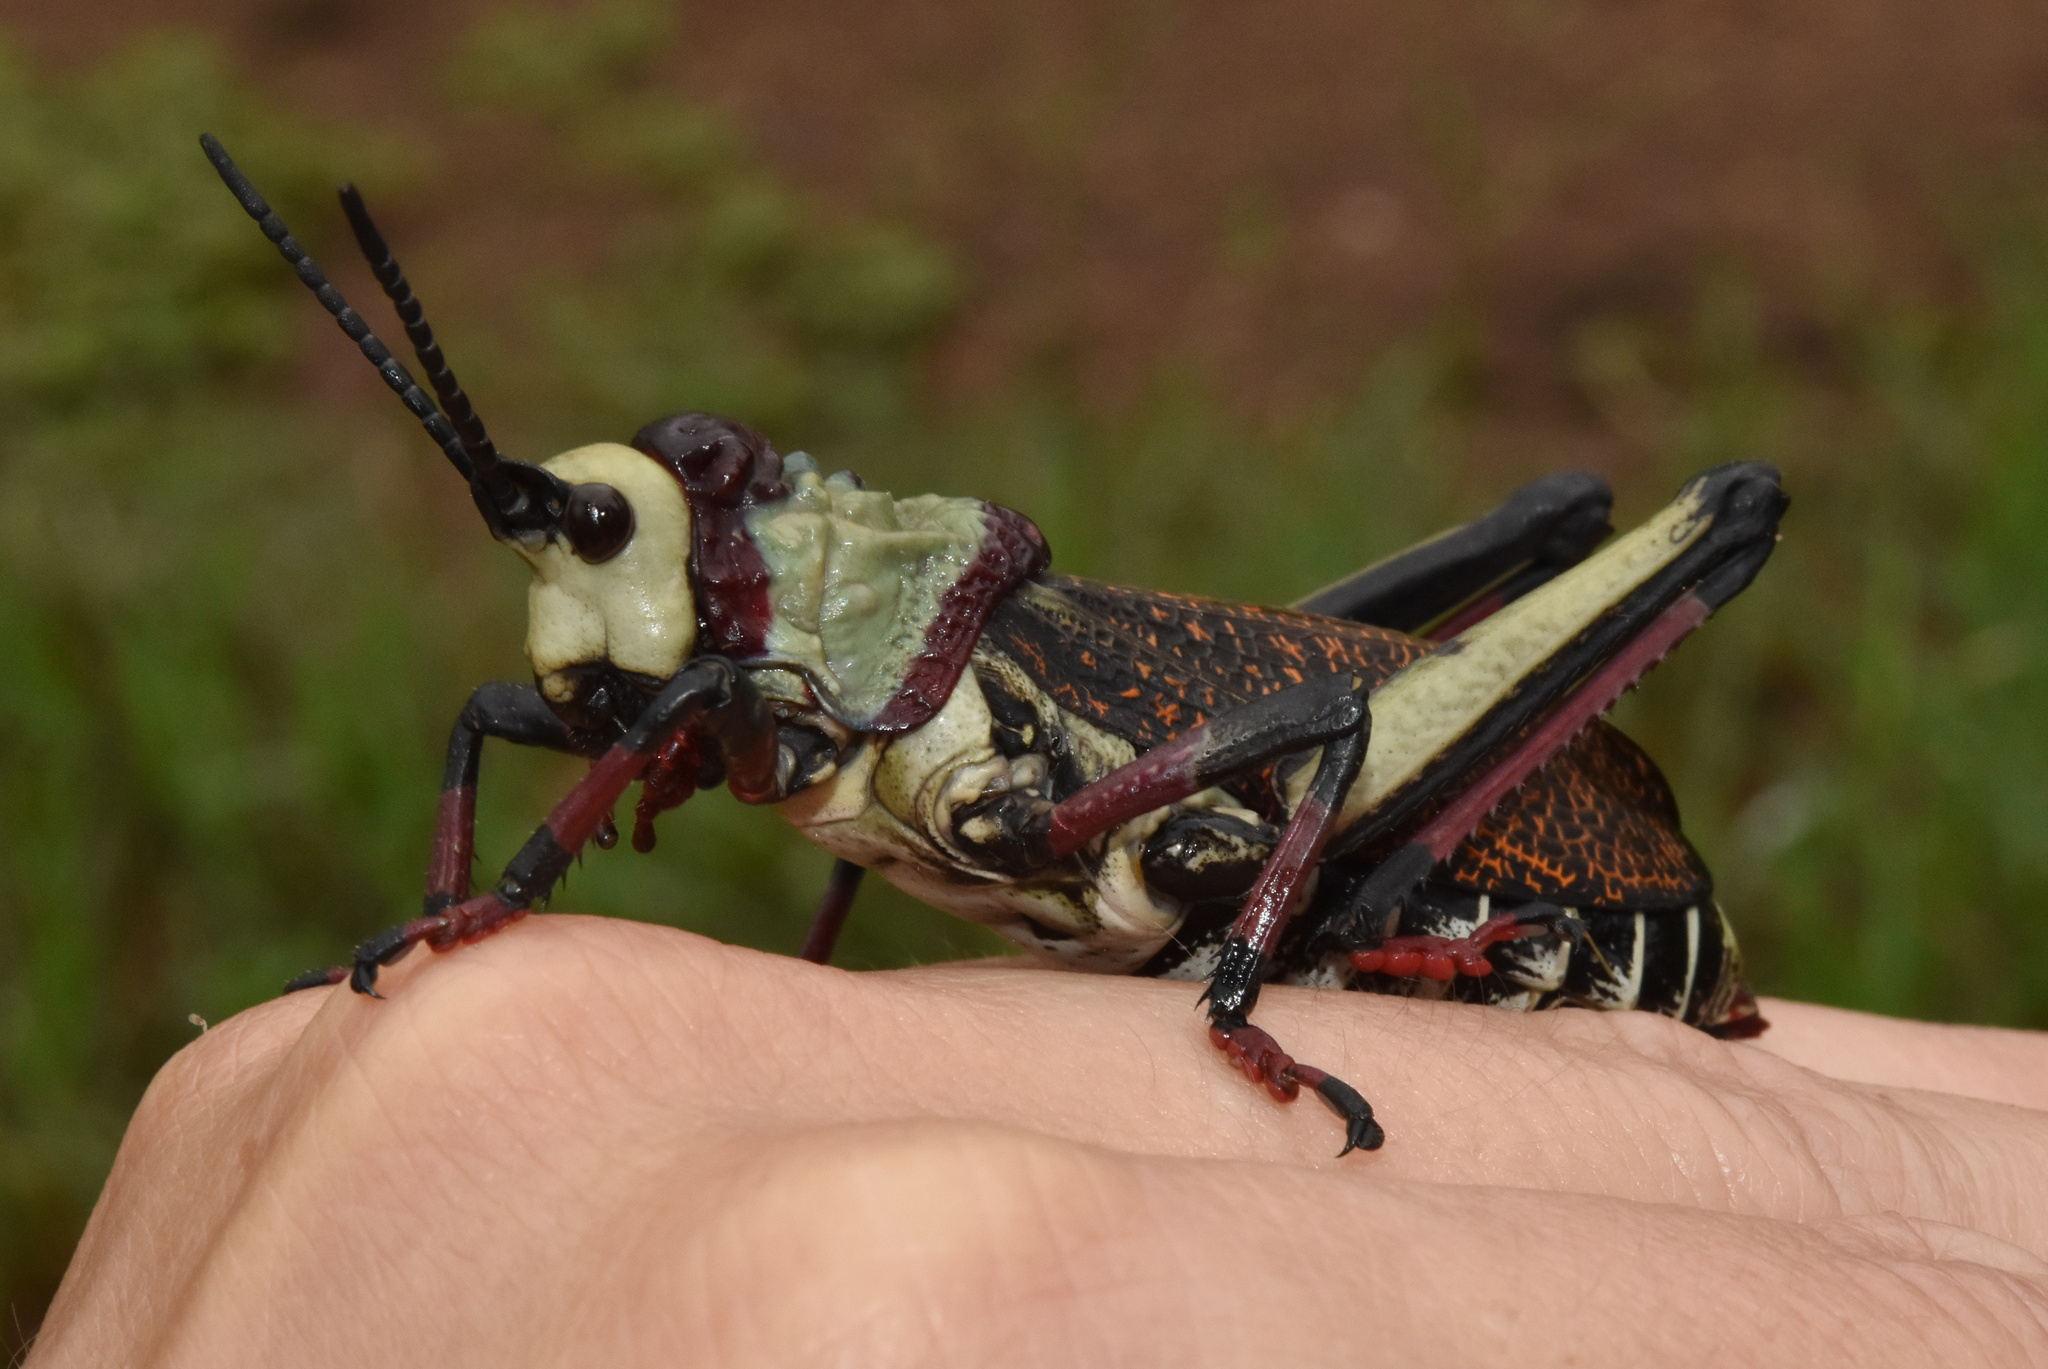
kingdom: Animalia
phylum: Arthropoda
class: Insecta
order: Orthoptera
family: Pyrgomorphidae
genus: Dictyophorus
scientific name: Dictyophorus spumans
